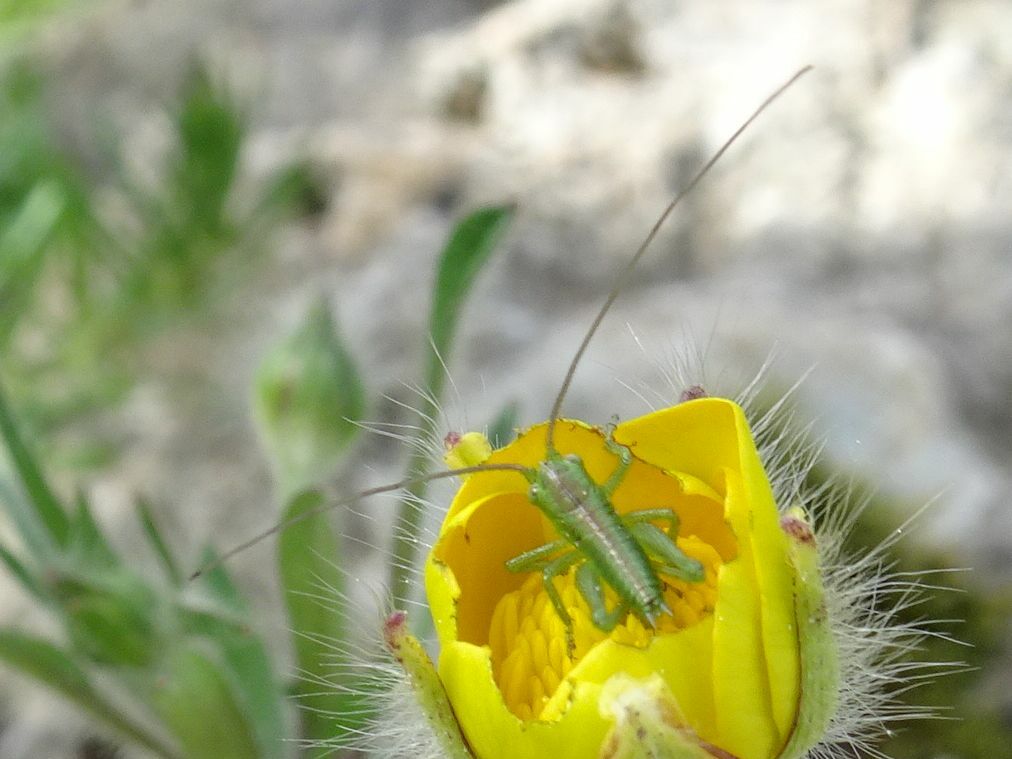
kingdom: Animalia
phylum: Arthropoda
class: Insecta
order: Orthoptera
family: Tettigoniidae
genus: Tettigonia
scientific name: Tettigonia viridissima
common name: Great green bush-cricket
